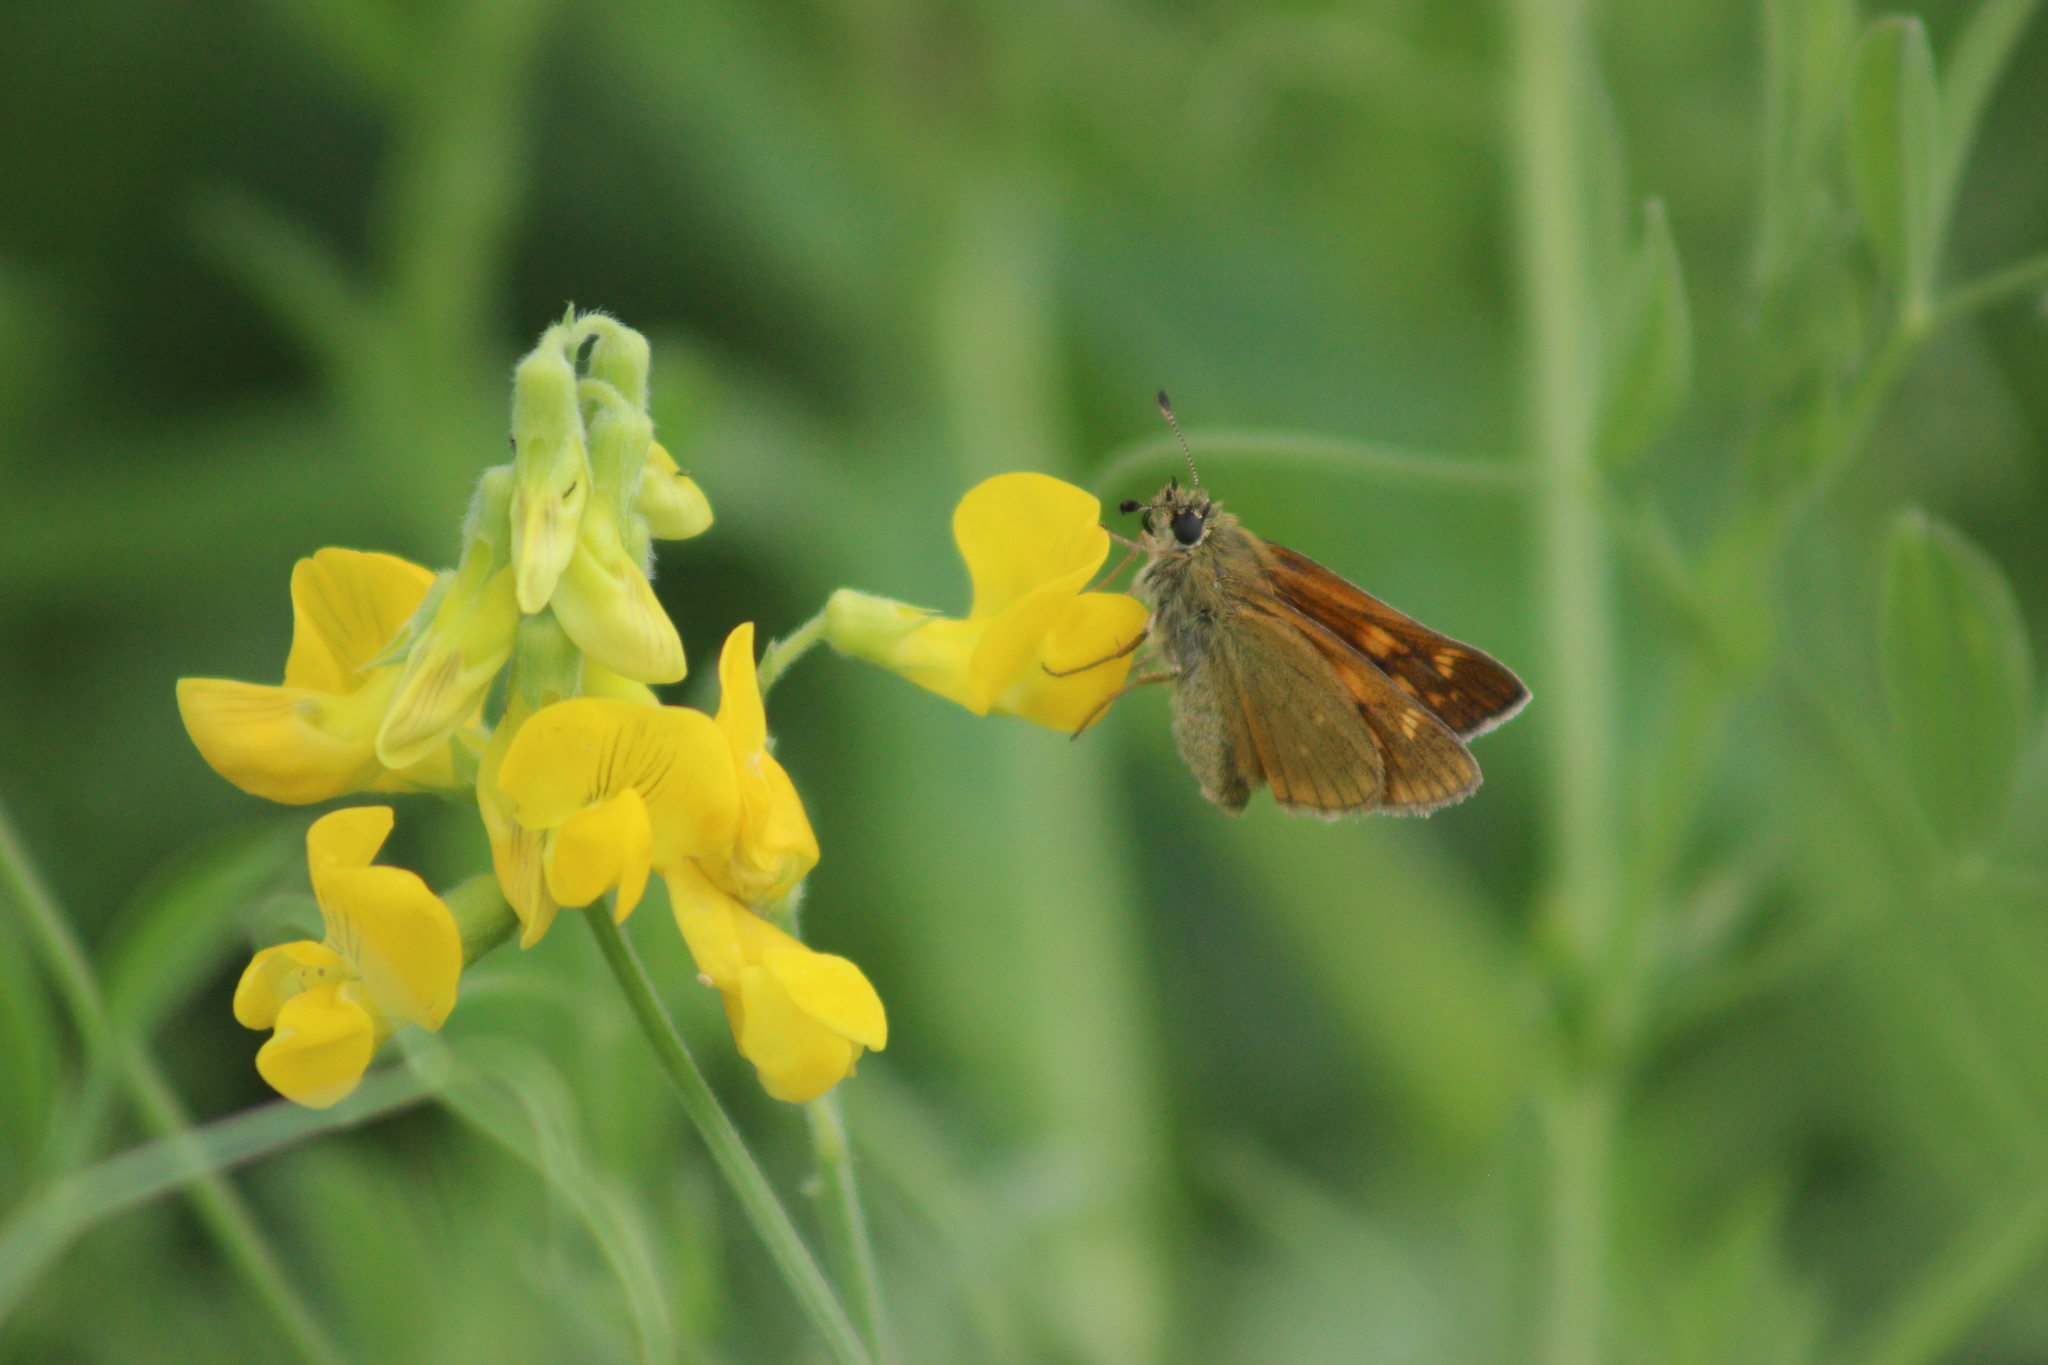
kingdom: Animalia
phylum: Arthropoda
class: Insecta
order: Lepidoptera
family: Hesperiidae
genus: Ochlodes
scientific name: Ochlodes venata
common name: Large skipper
